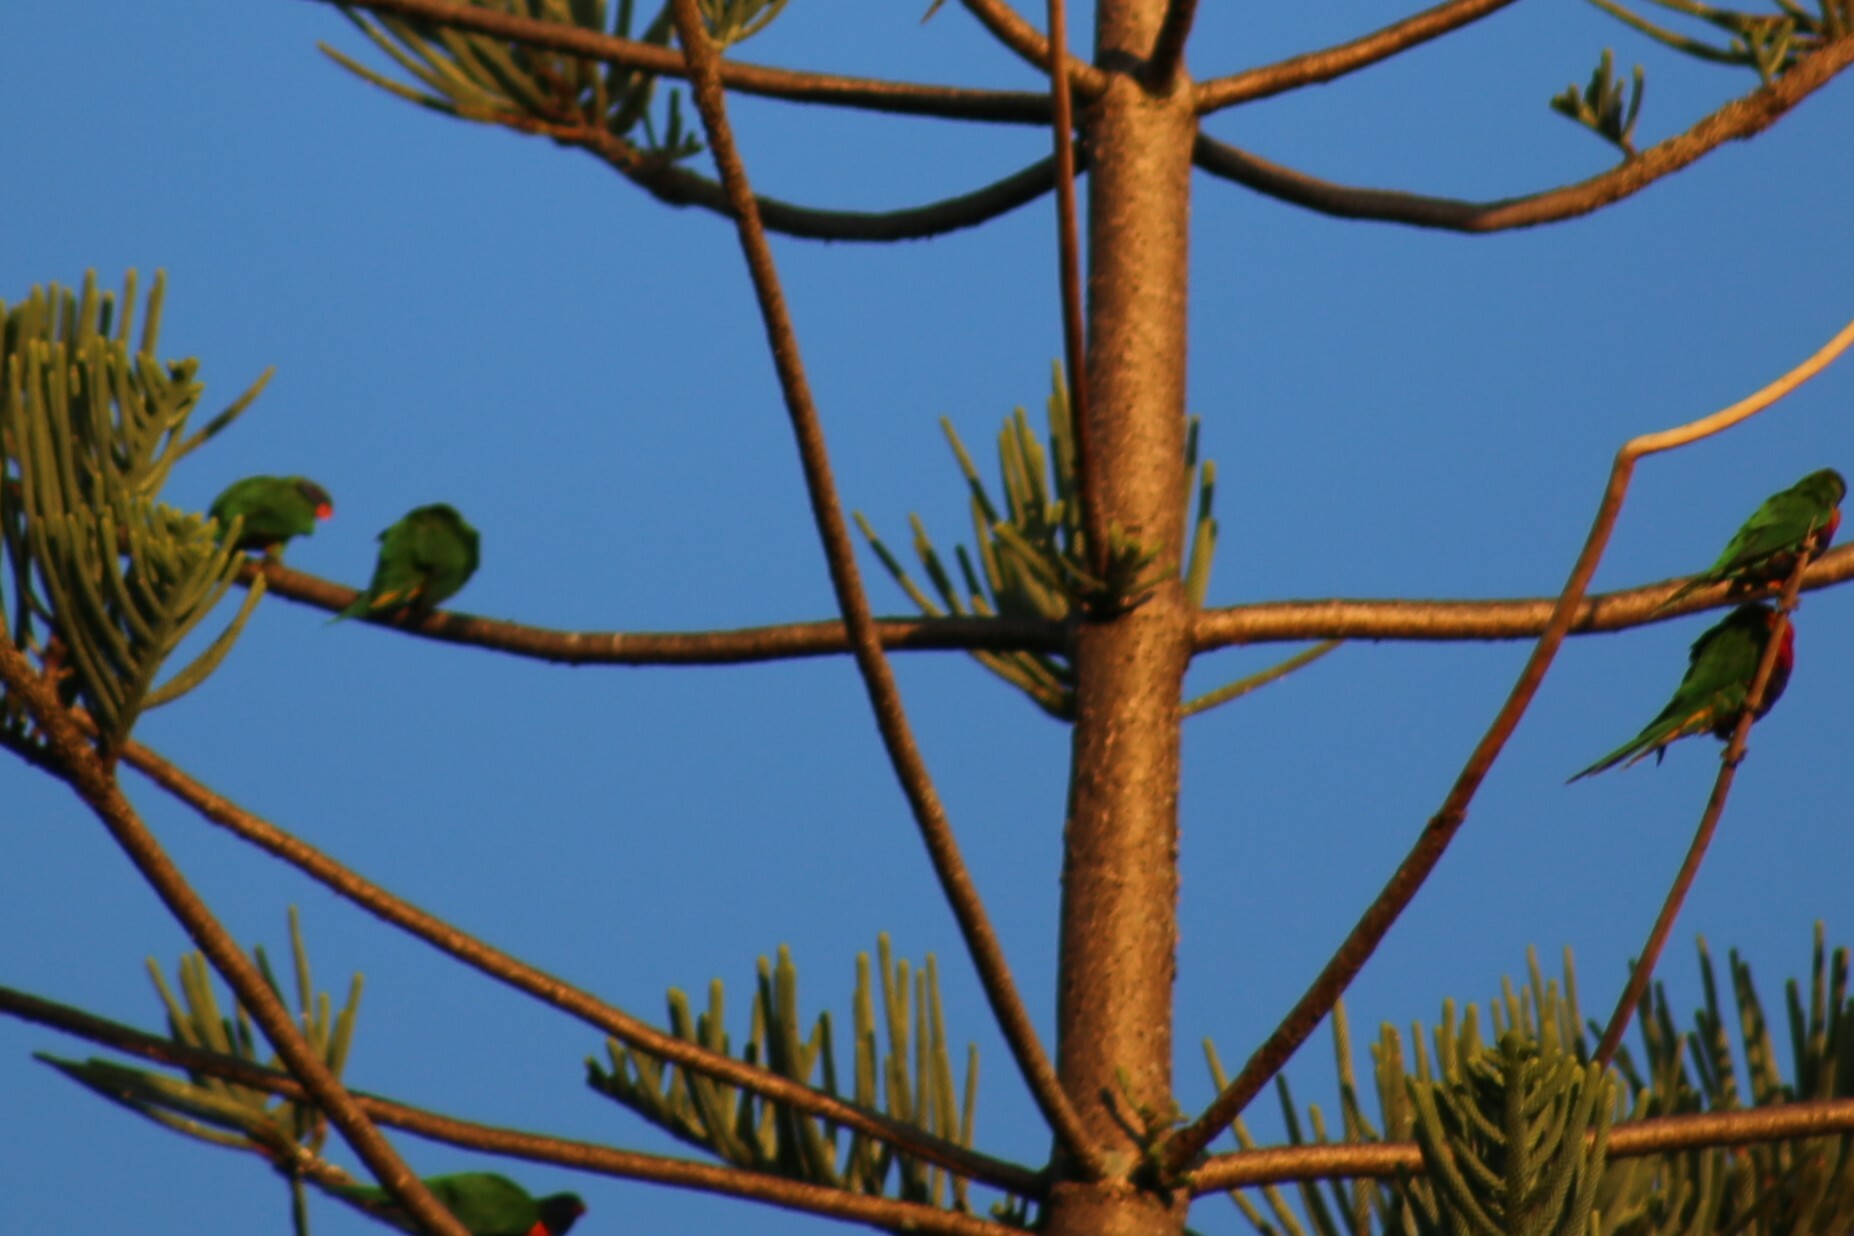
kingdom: Animalia
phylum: Chordata
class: Aves
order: Psittaciformes
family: Psittacidae
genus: Trichoglossus
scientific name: Trichoglossus haematodus
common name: Coconut lorikeet
